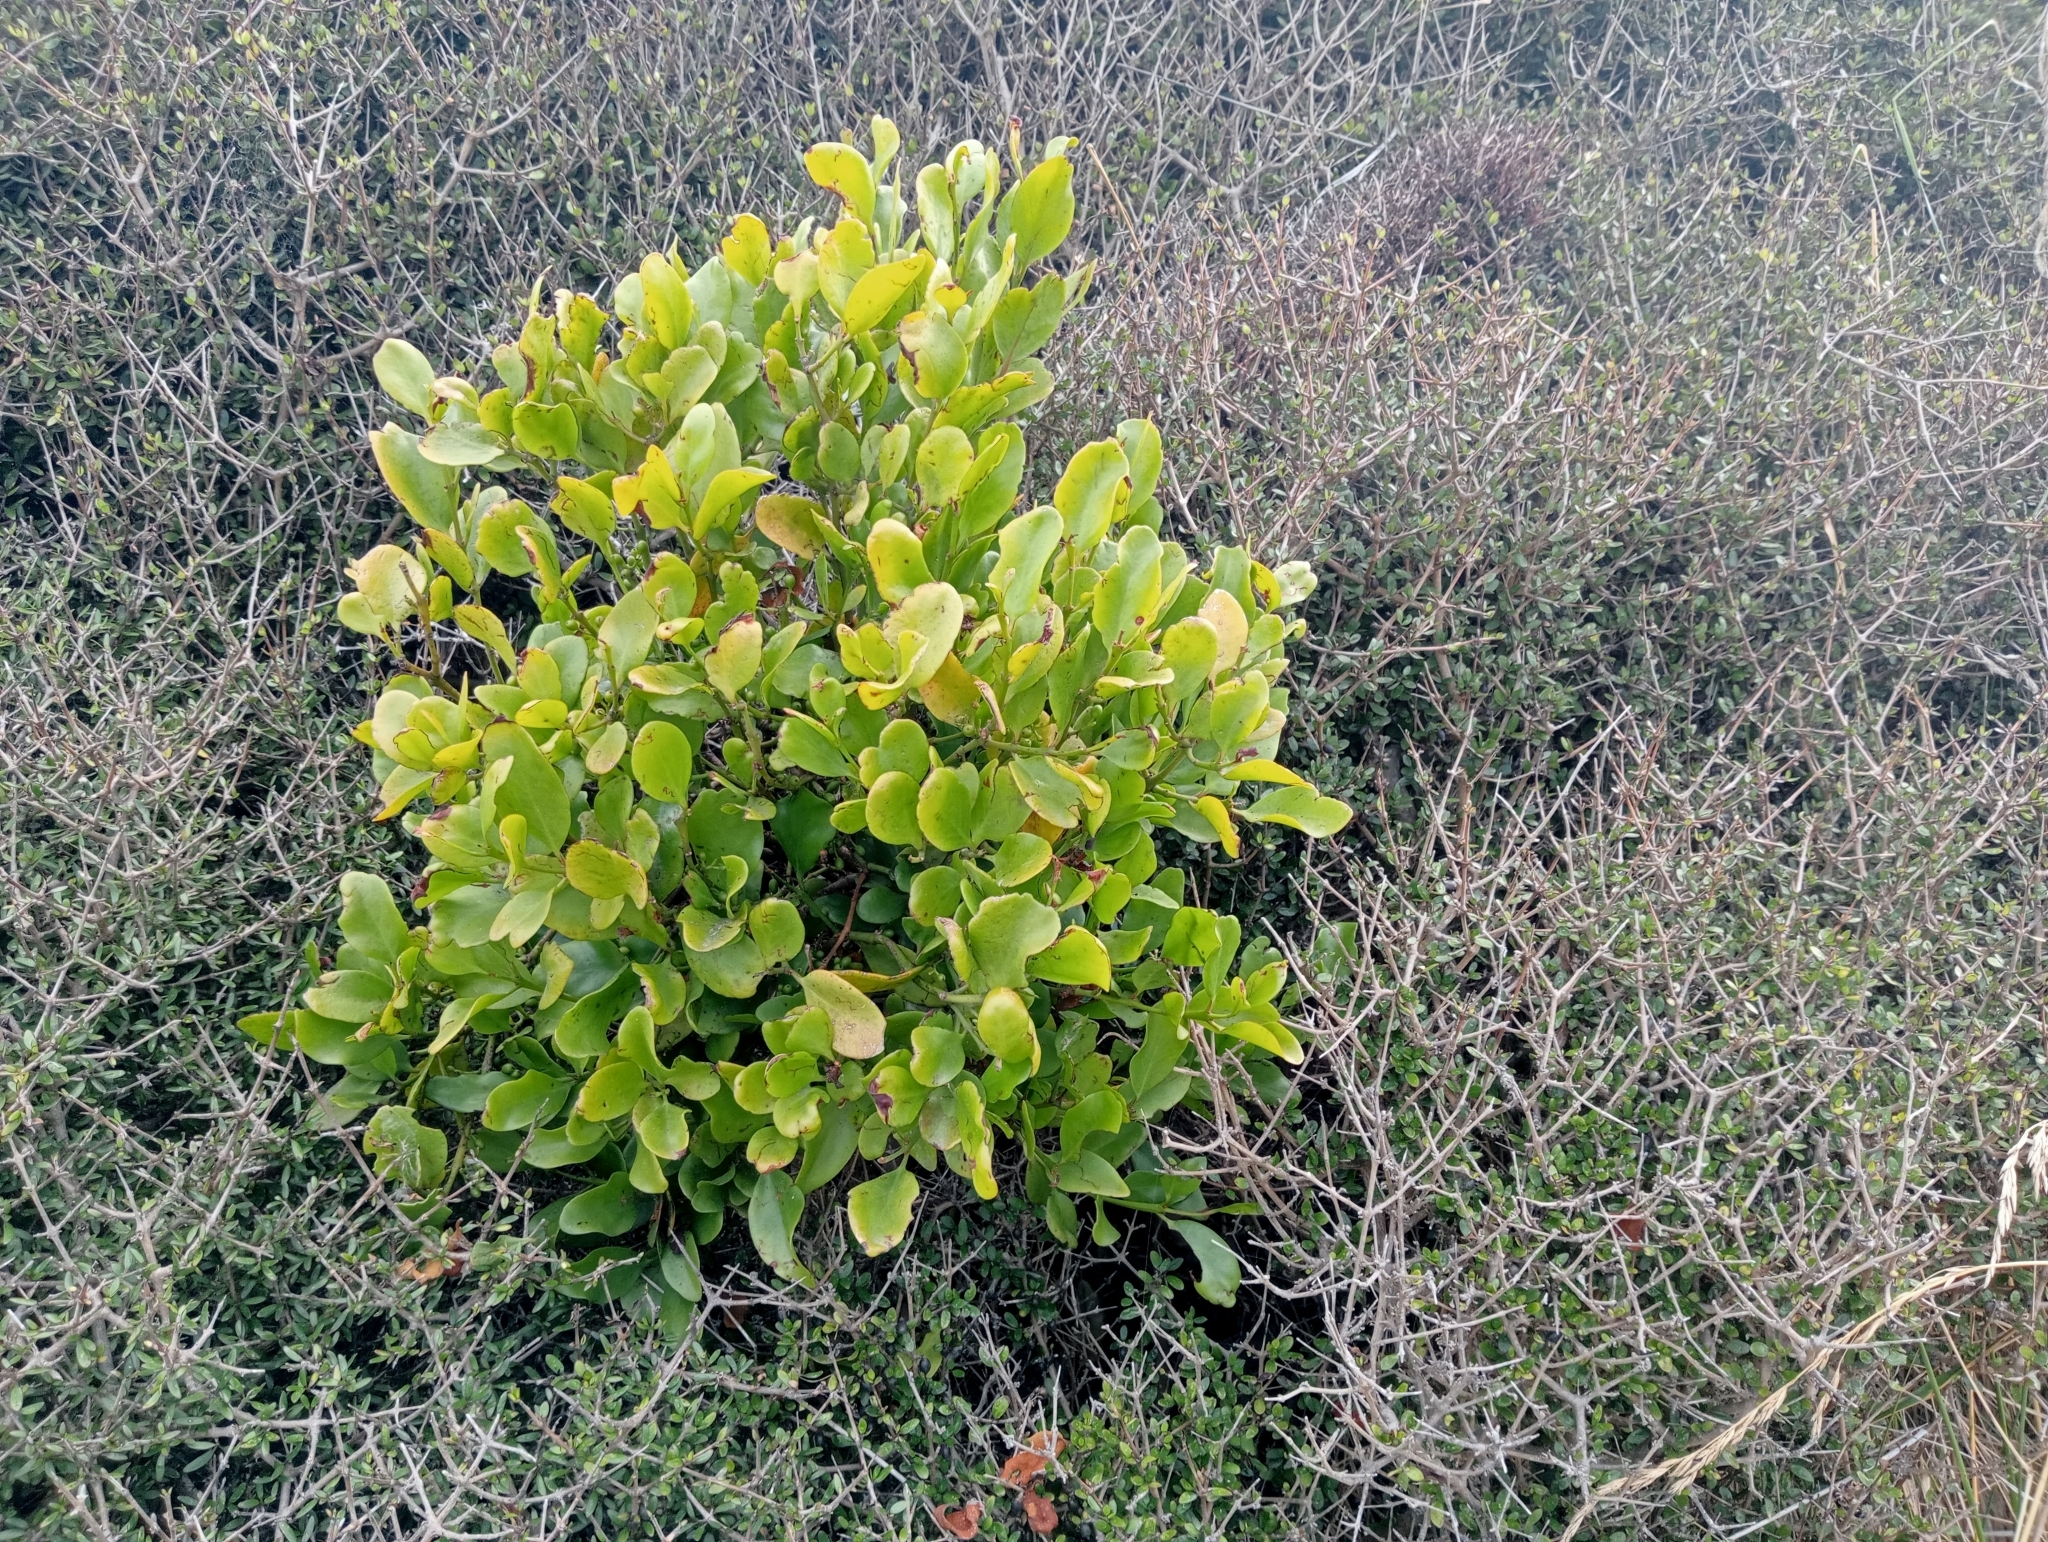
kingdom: Plantae
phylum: Tracheophyta
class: Magnoliopsida
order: Santalales
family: Loranthaceae
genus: Ileostylus
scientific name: Ileostylus micranthus
